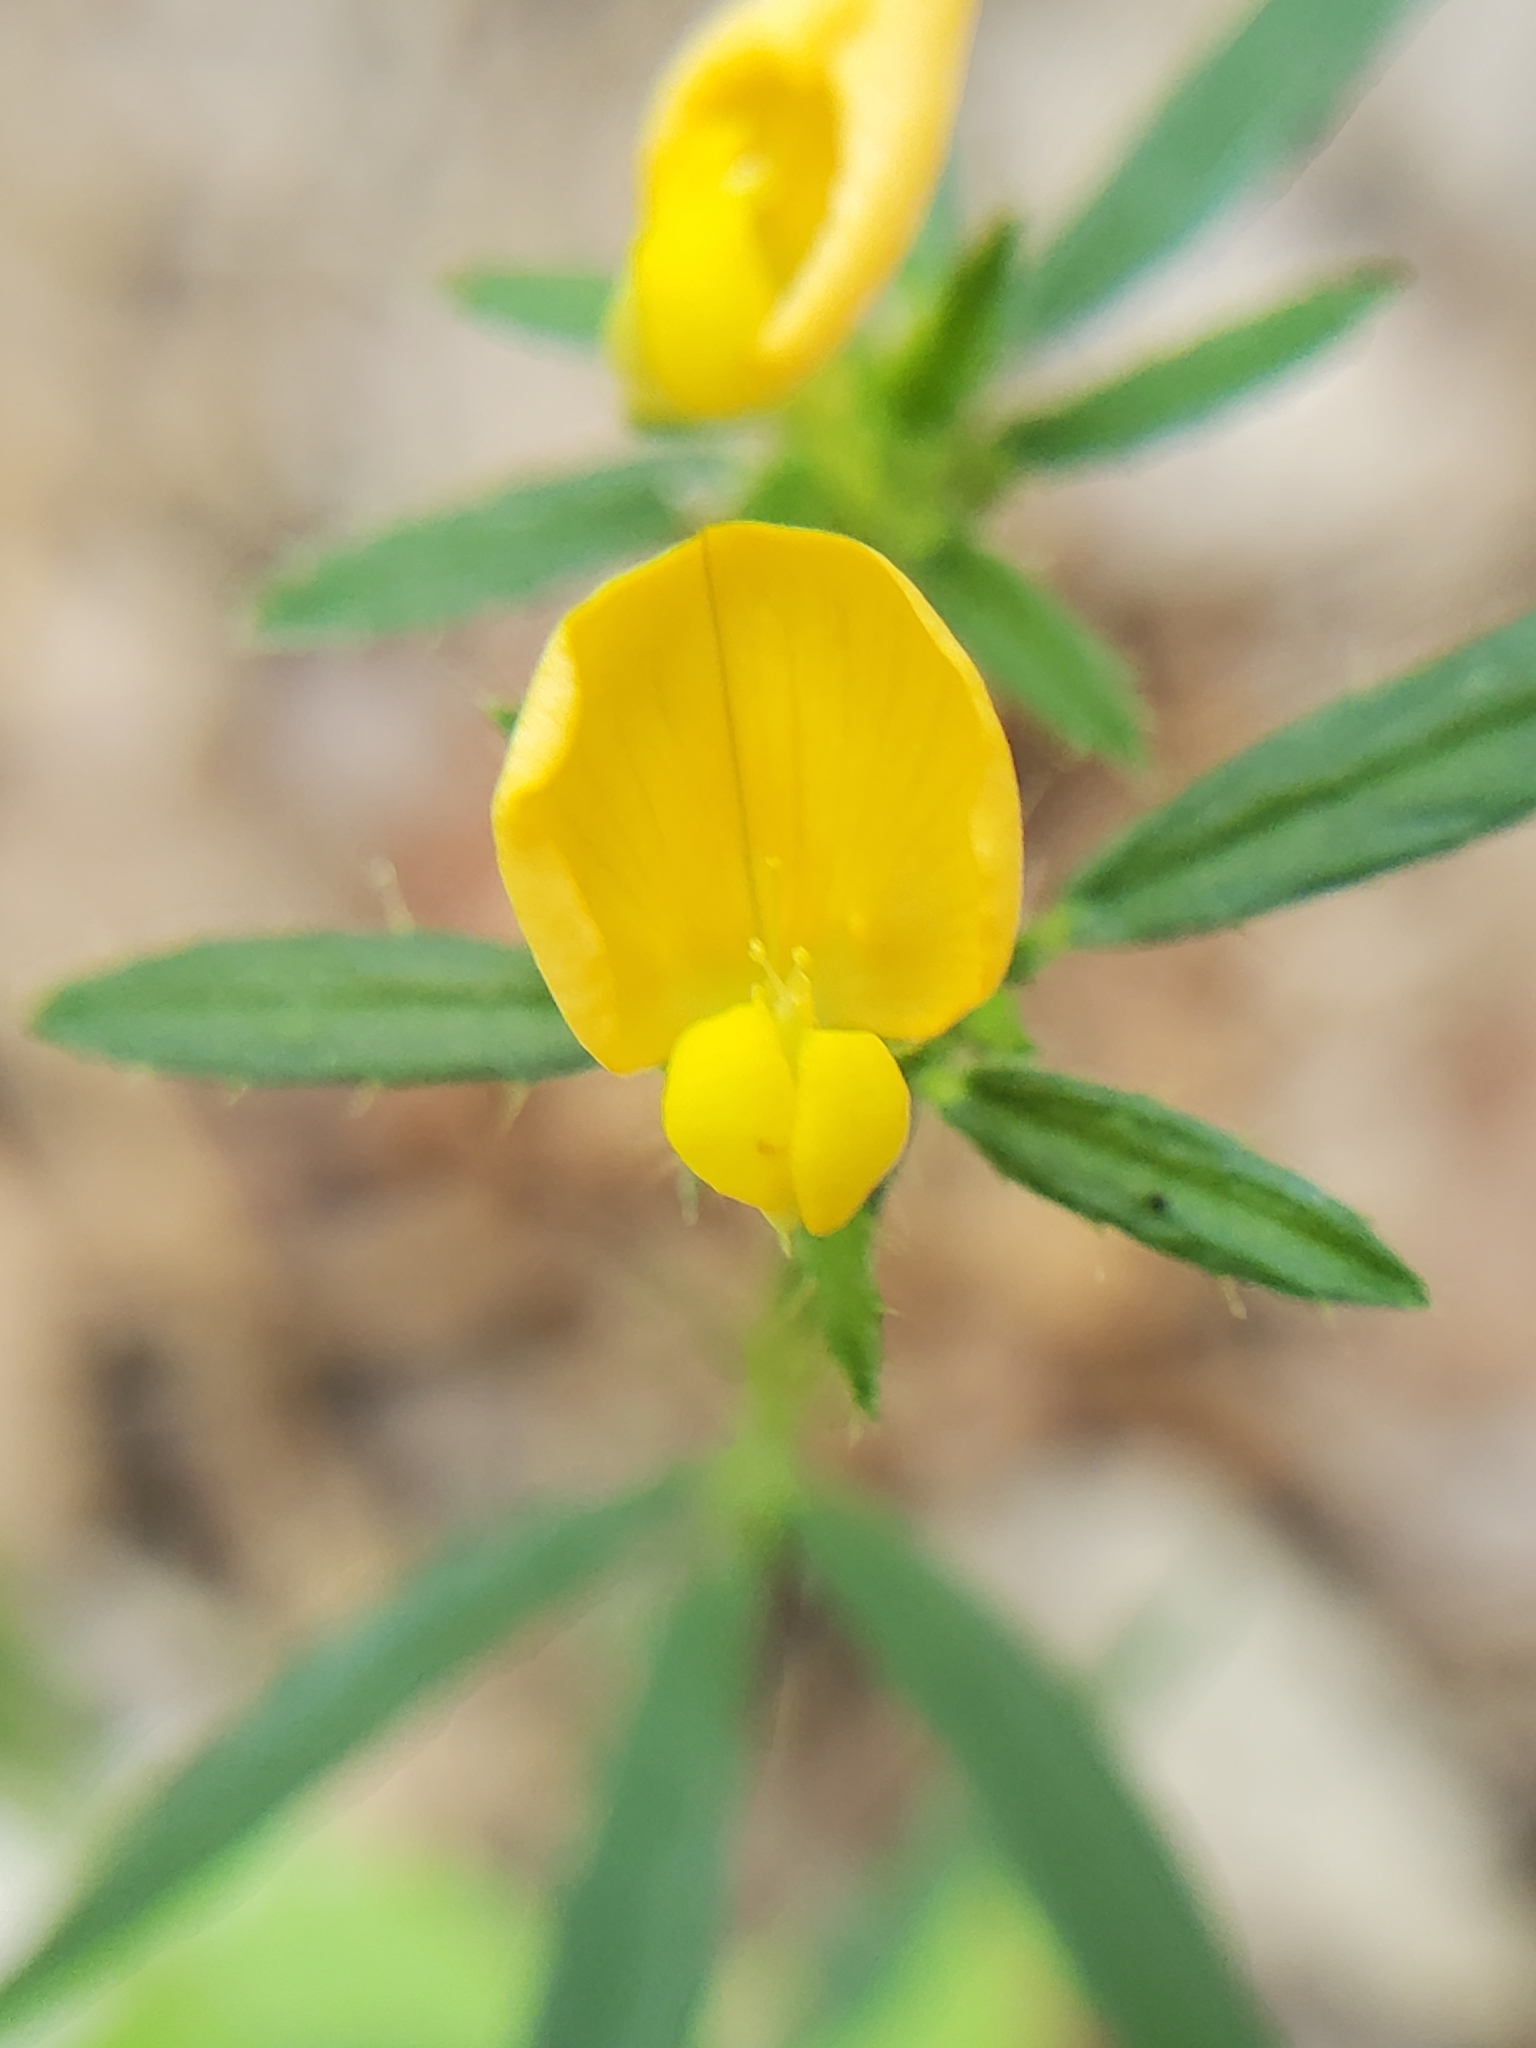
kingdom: Plantae
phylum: Tracheophyta
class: Magnoliopsida
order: Fabales
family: Fabaceae
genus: Stylosanthes
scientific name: Stylosanthes biflora
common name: Two-flower pencil-flower
